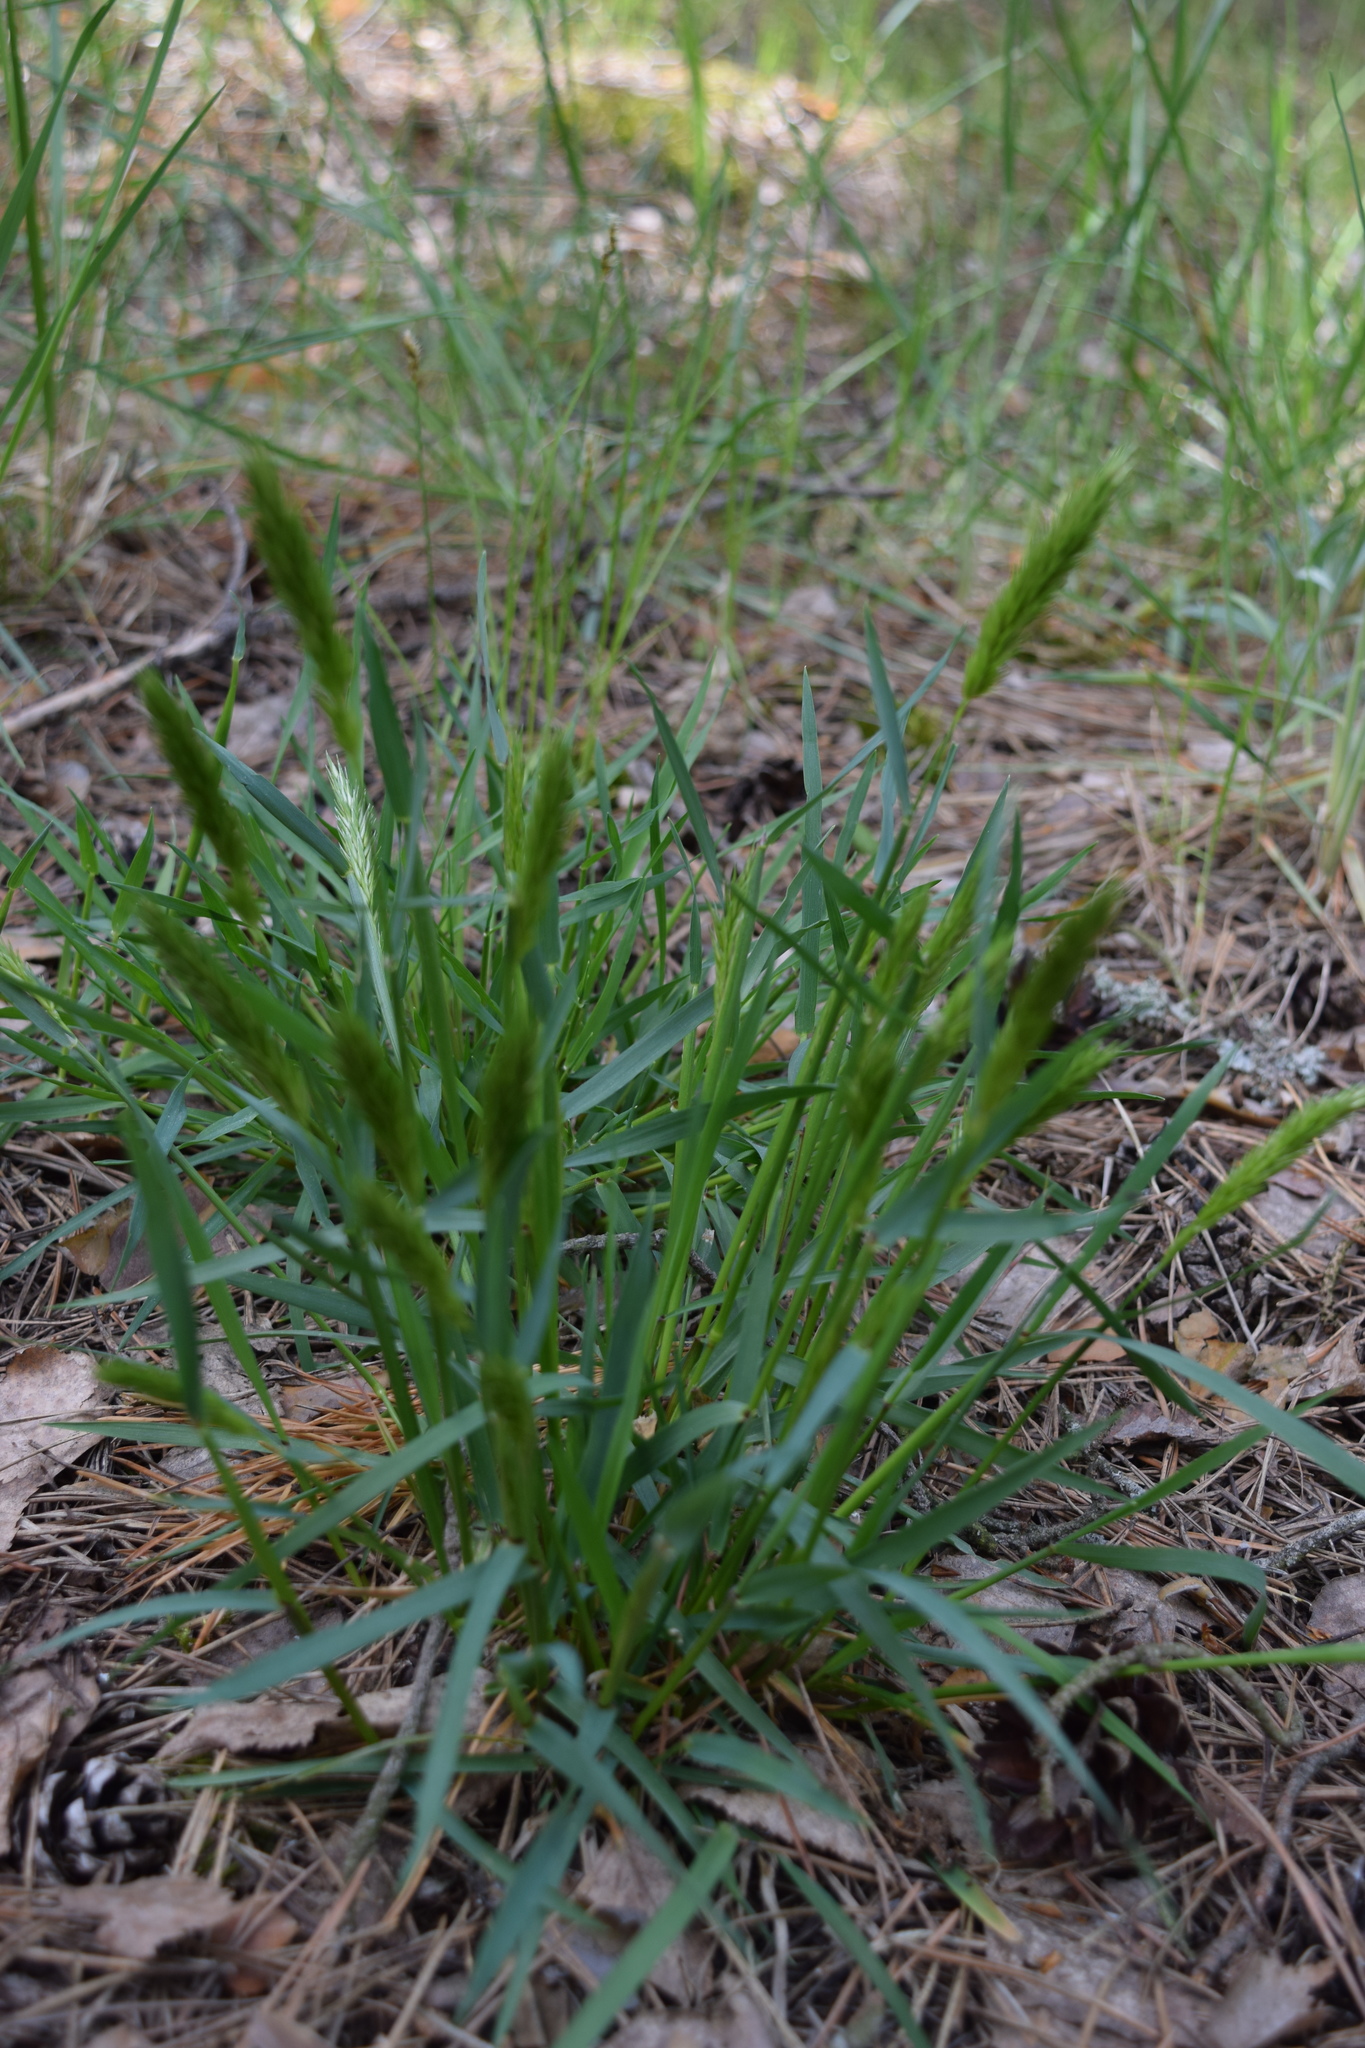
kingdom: Plantae
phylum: Tracheophyta
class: Liliopsida
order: Poales
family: Poaceae
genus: Anthoxanthum
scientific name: Anthoxanthum odoratum
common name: Sweet vernalgrass
